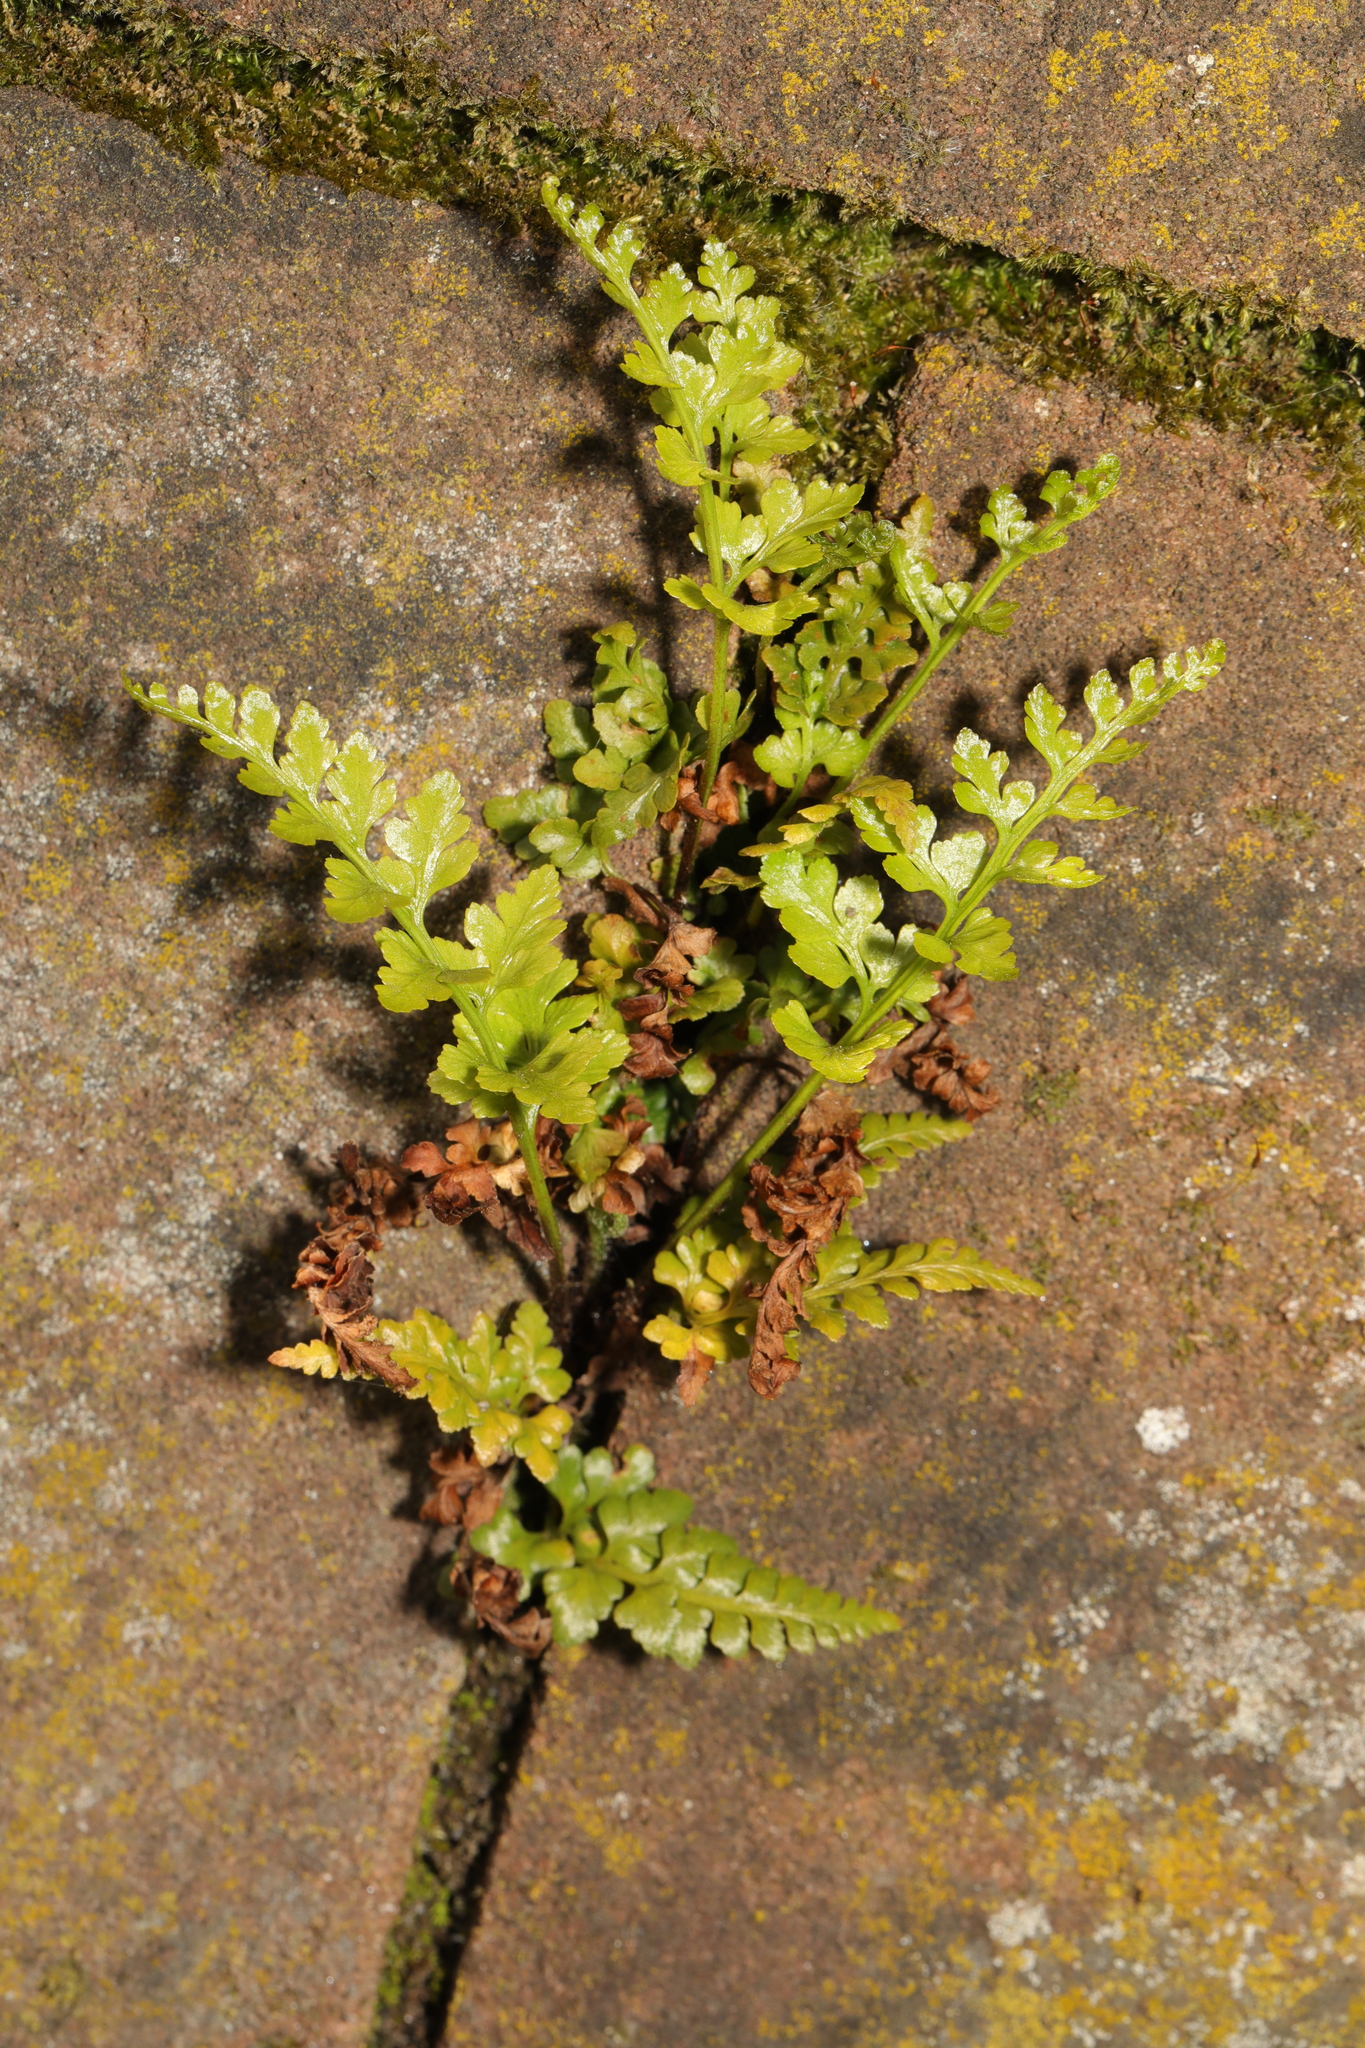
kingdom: Plantae
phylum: Tracheophyta
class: Polypodiopsida
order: Polypodiales
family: Aspleniaceae
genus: Asplenium
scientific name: Asplenium adiantum-nigrum
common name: Black spleenwort
